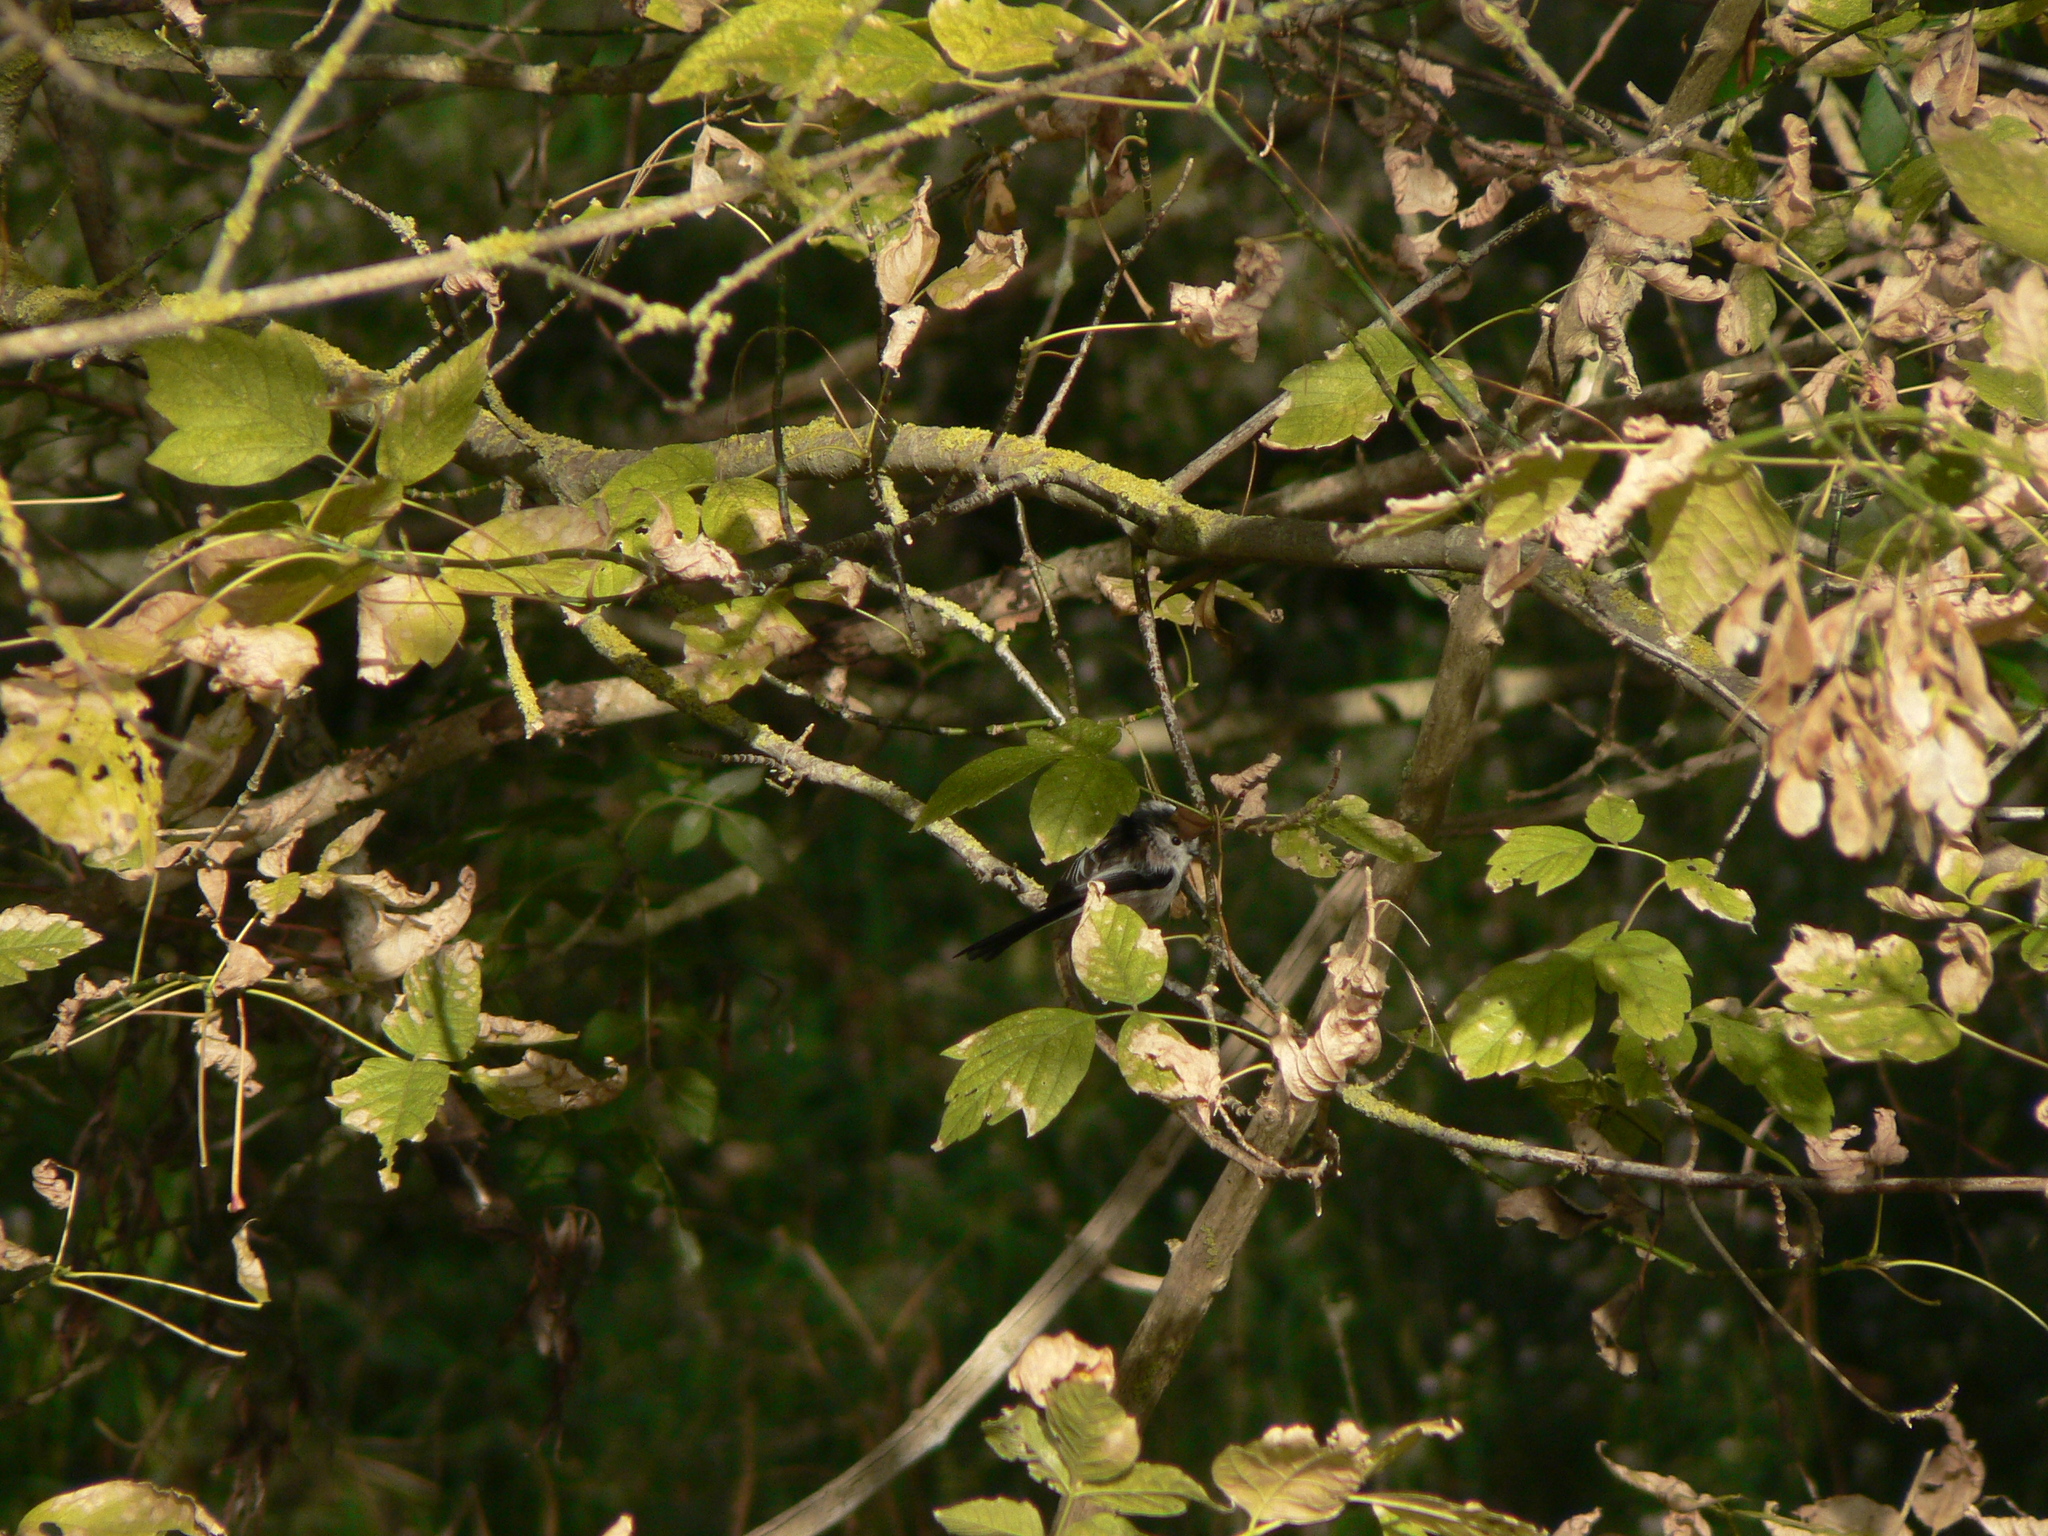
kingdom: Animalia
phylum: Chordata
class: Aves
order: Passeriformes
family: Aegithalidae
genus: Aegithalos
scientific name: Aegithalos caudatus
